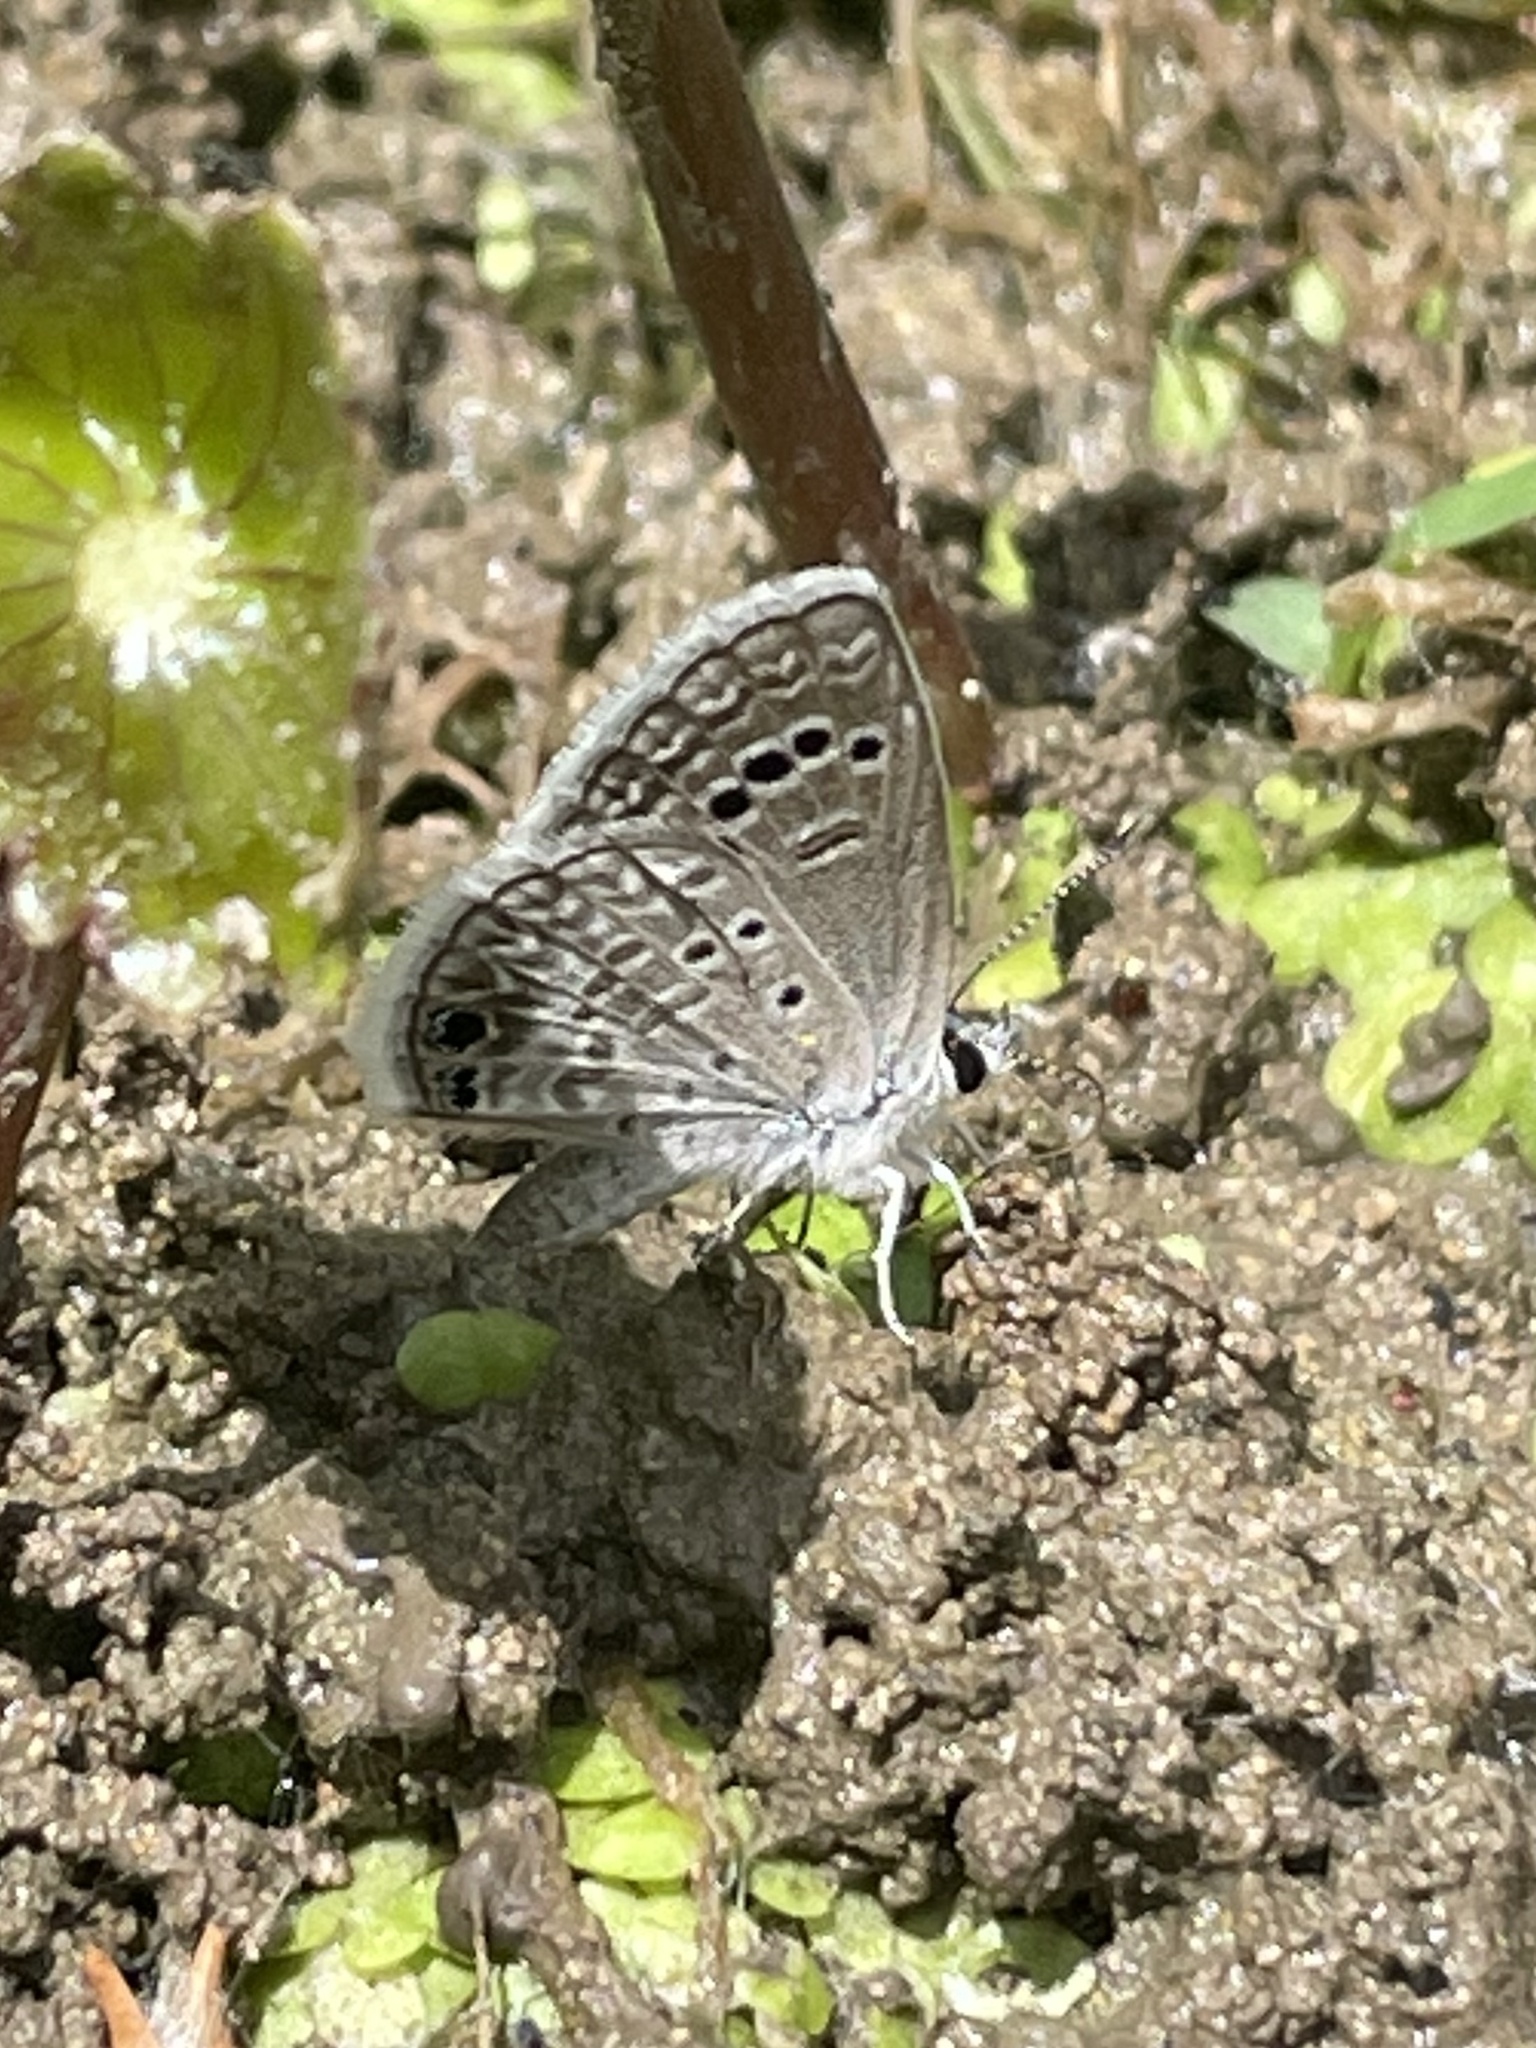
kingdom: Animalia
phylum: Arthropoda
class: Insecta
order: Lepidoptera
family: Lycaenidae
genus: Echinargus
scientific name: Echinargus isola
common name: Reakirt's blue
